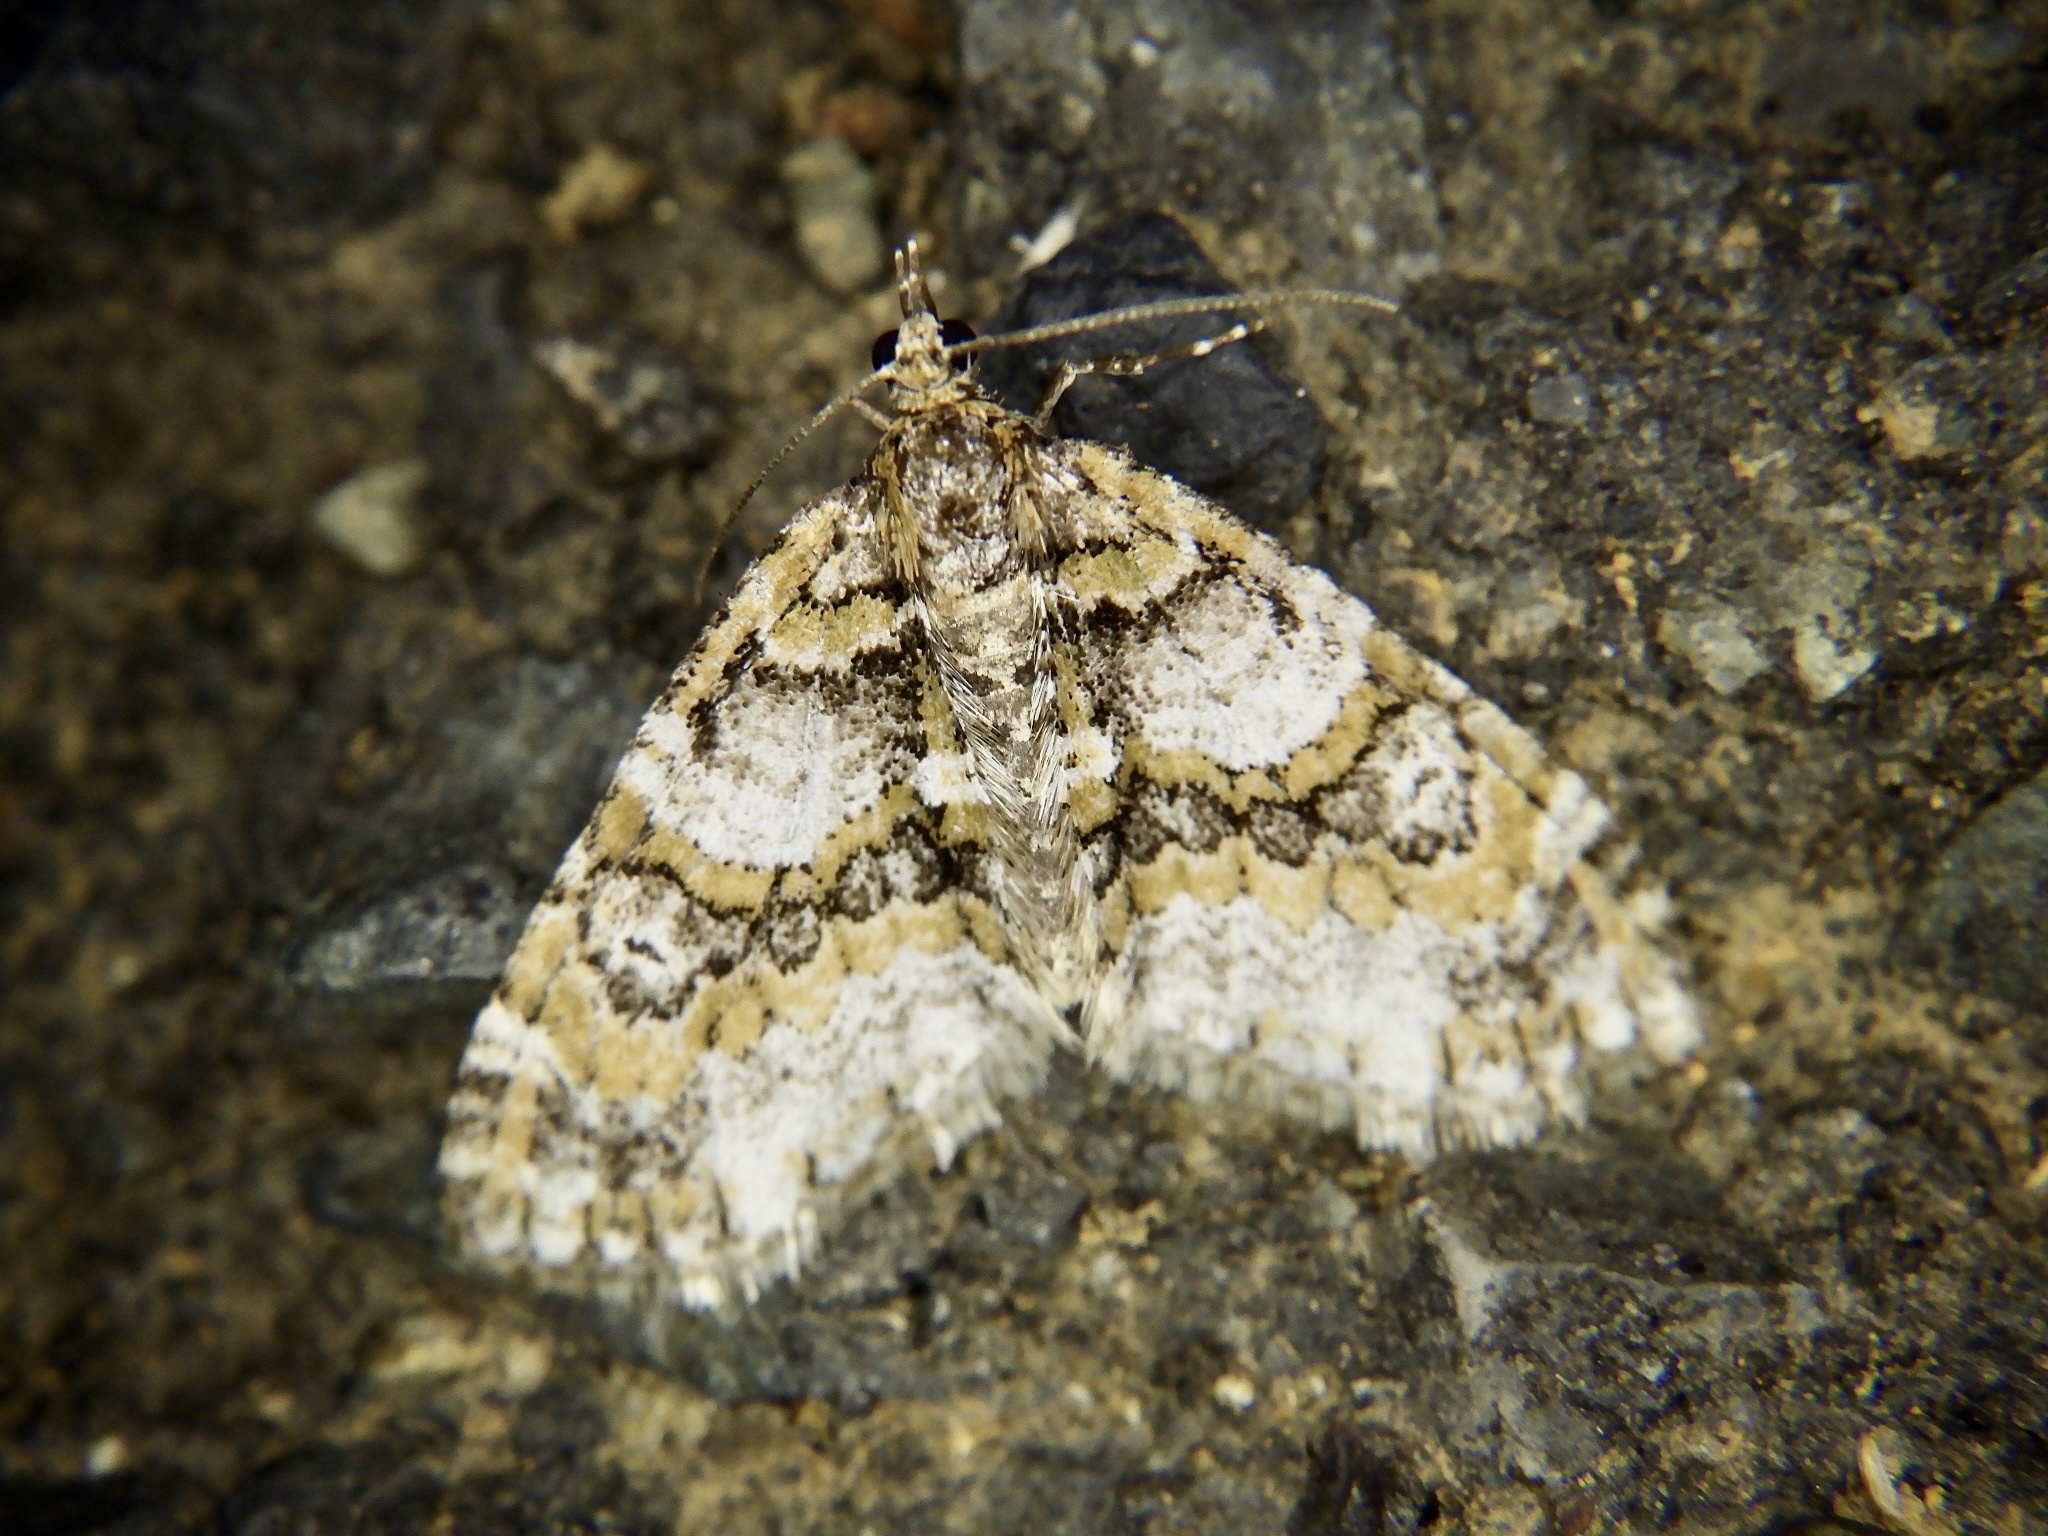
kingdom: Animalia
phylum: Arthropoda
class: Insecta
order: Lepidoptera
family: Geometridae
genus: Esakiopteryx
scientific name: Esakiopteryx volitans
